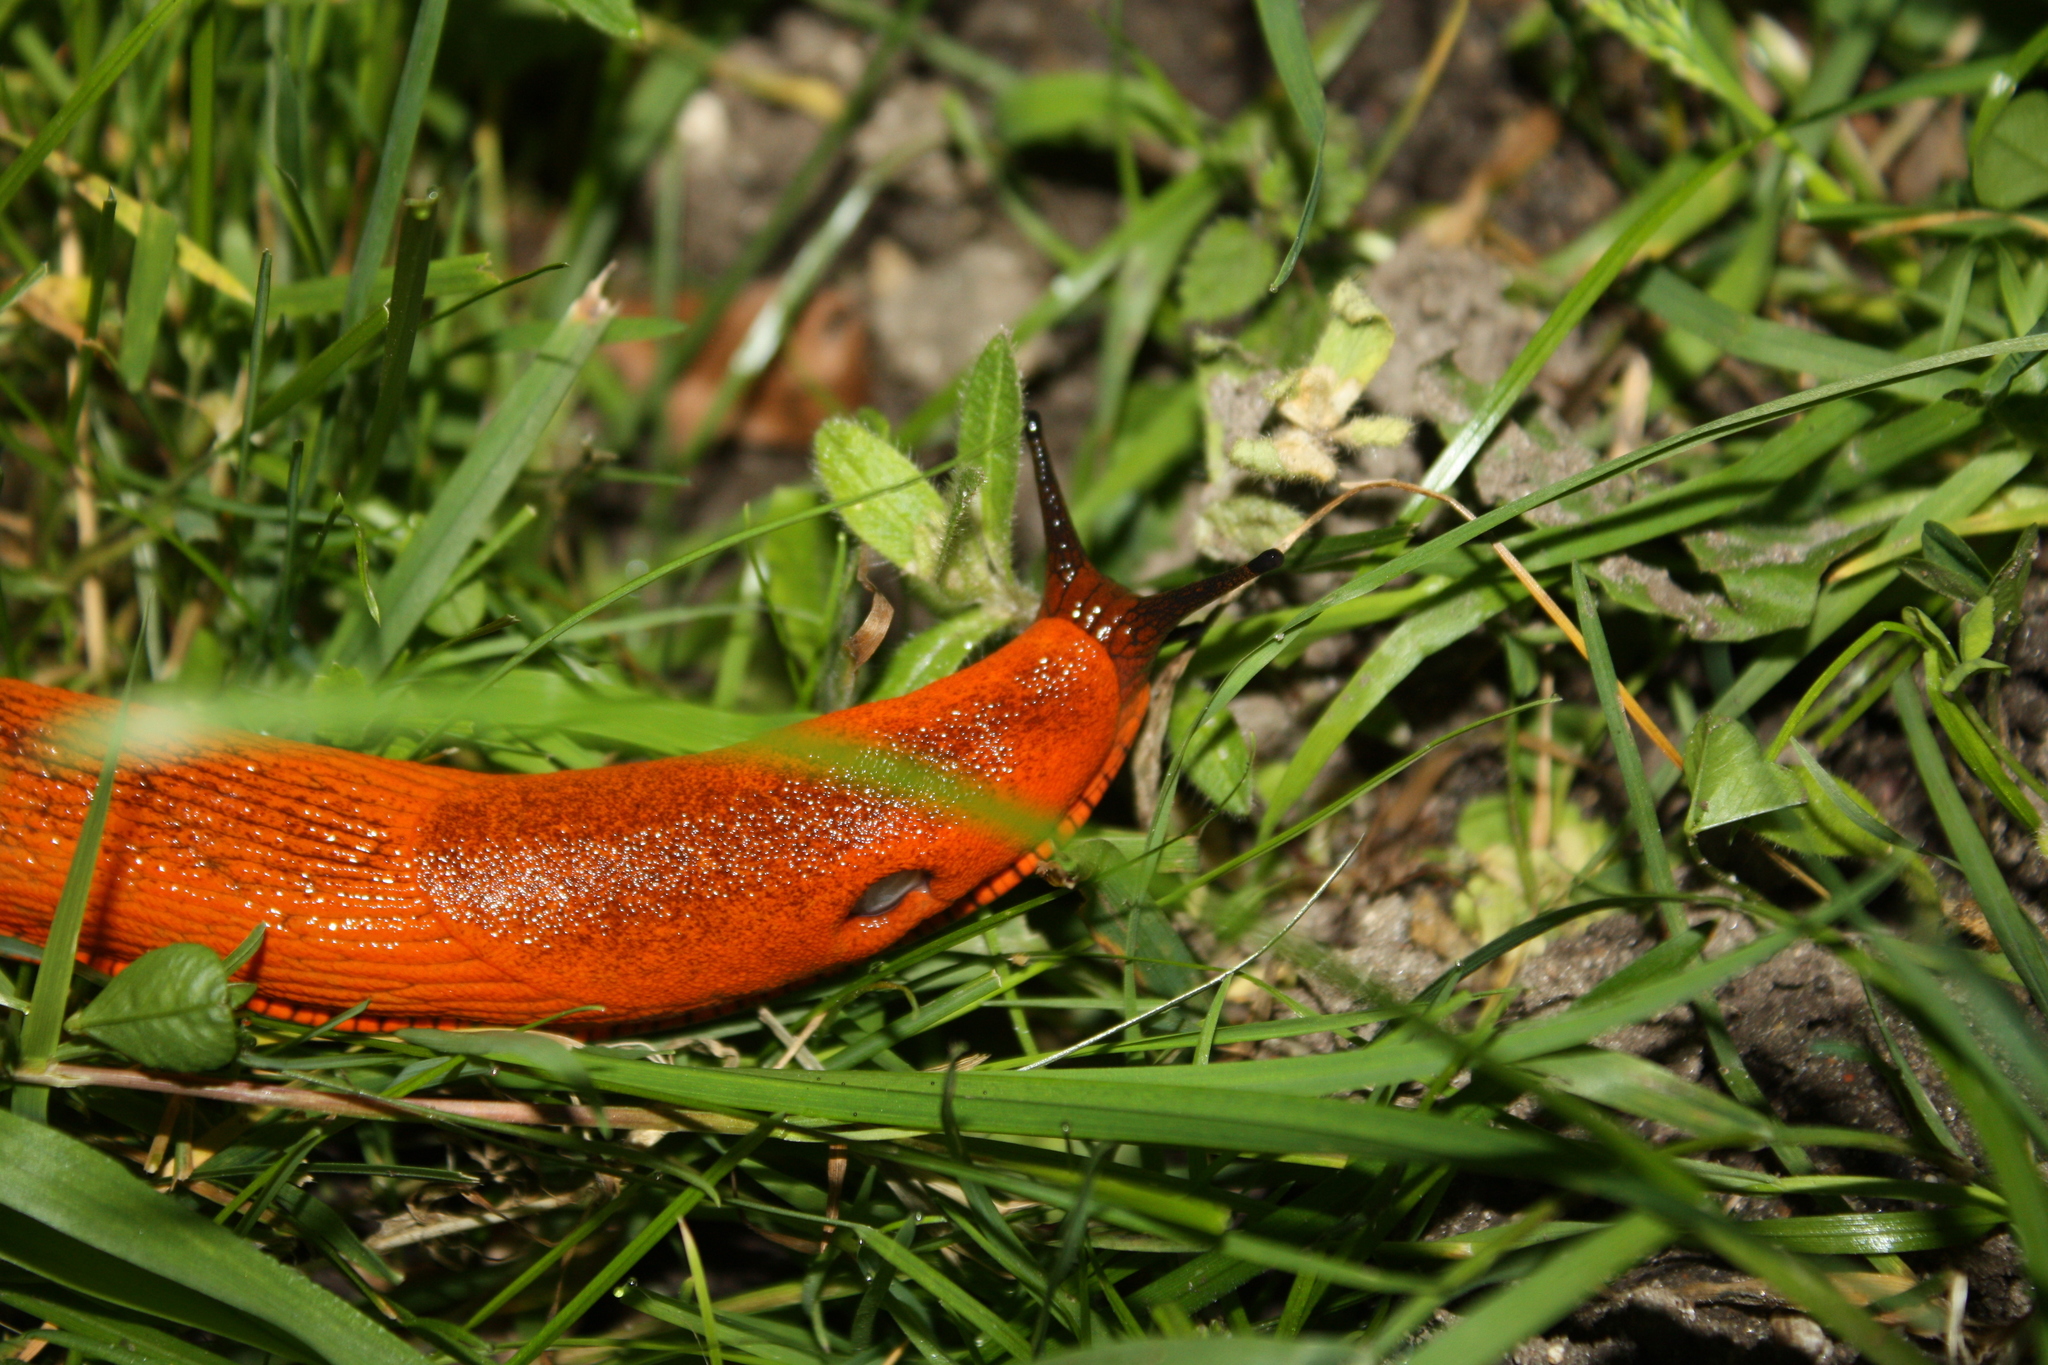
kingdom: Animalia
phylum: Mollusca
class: Gastropoda
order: Stylommatophora
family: Arionidae
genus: Arion
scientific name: Arion rufus
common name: Chocolate arion
